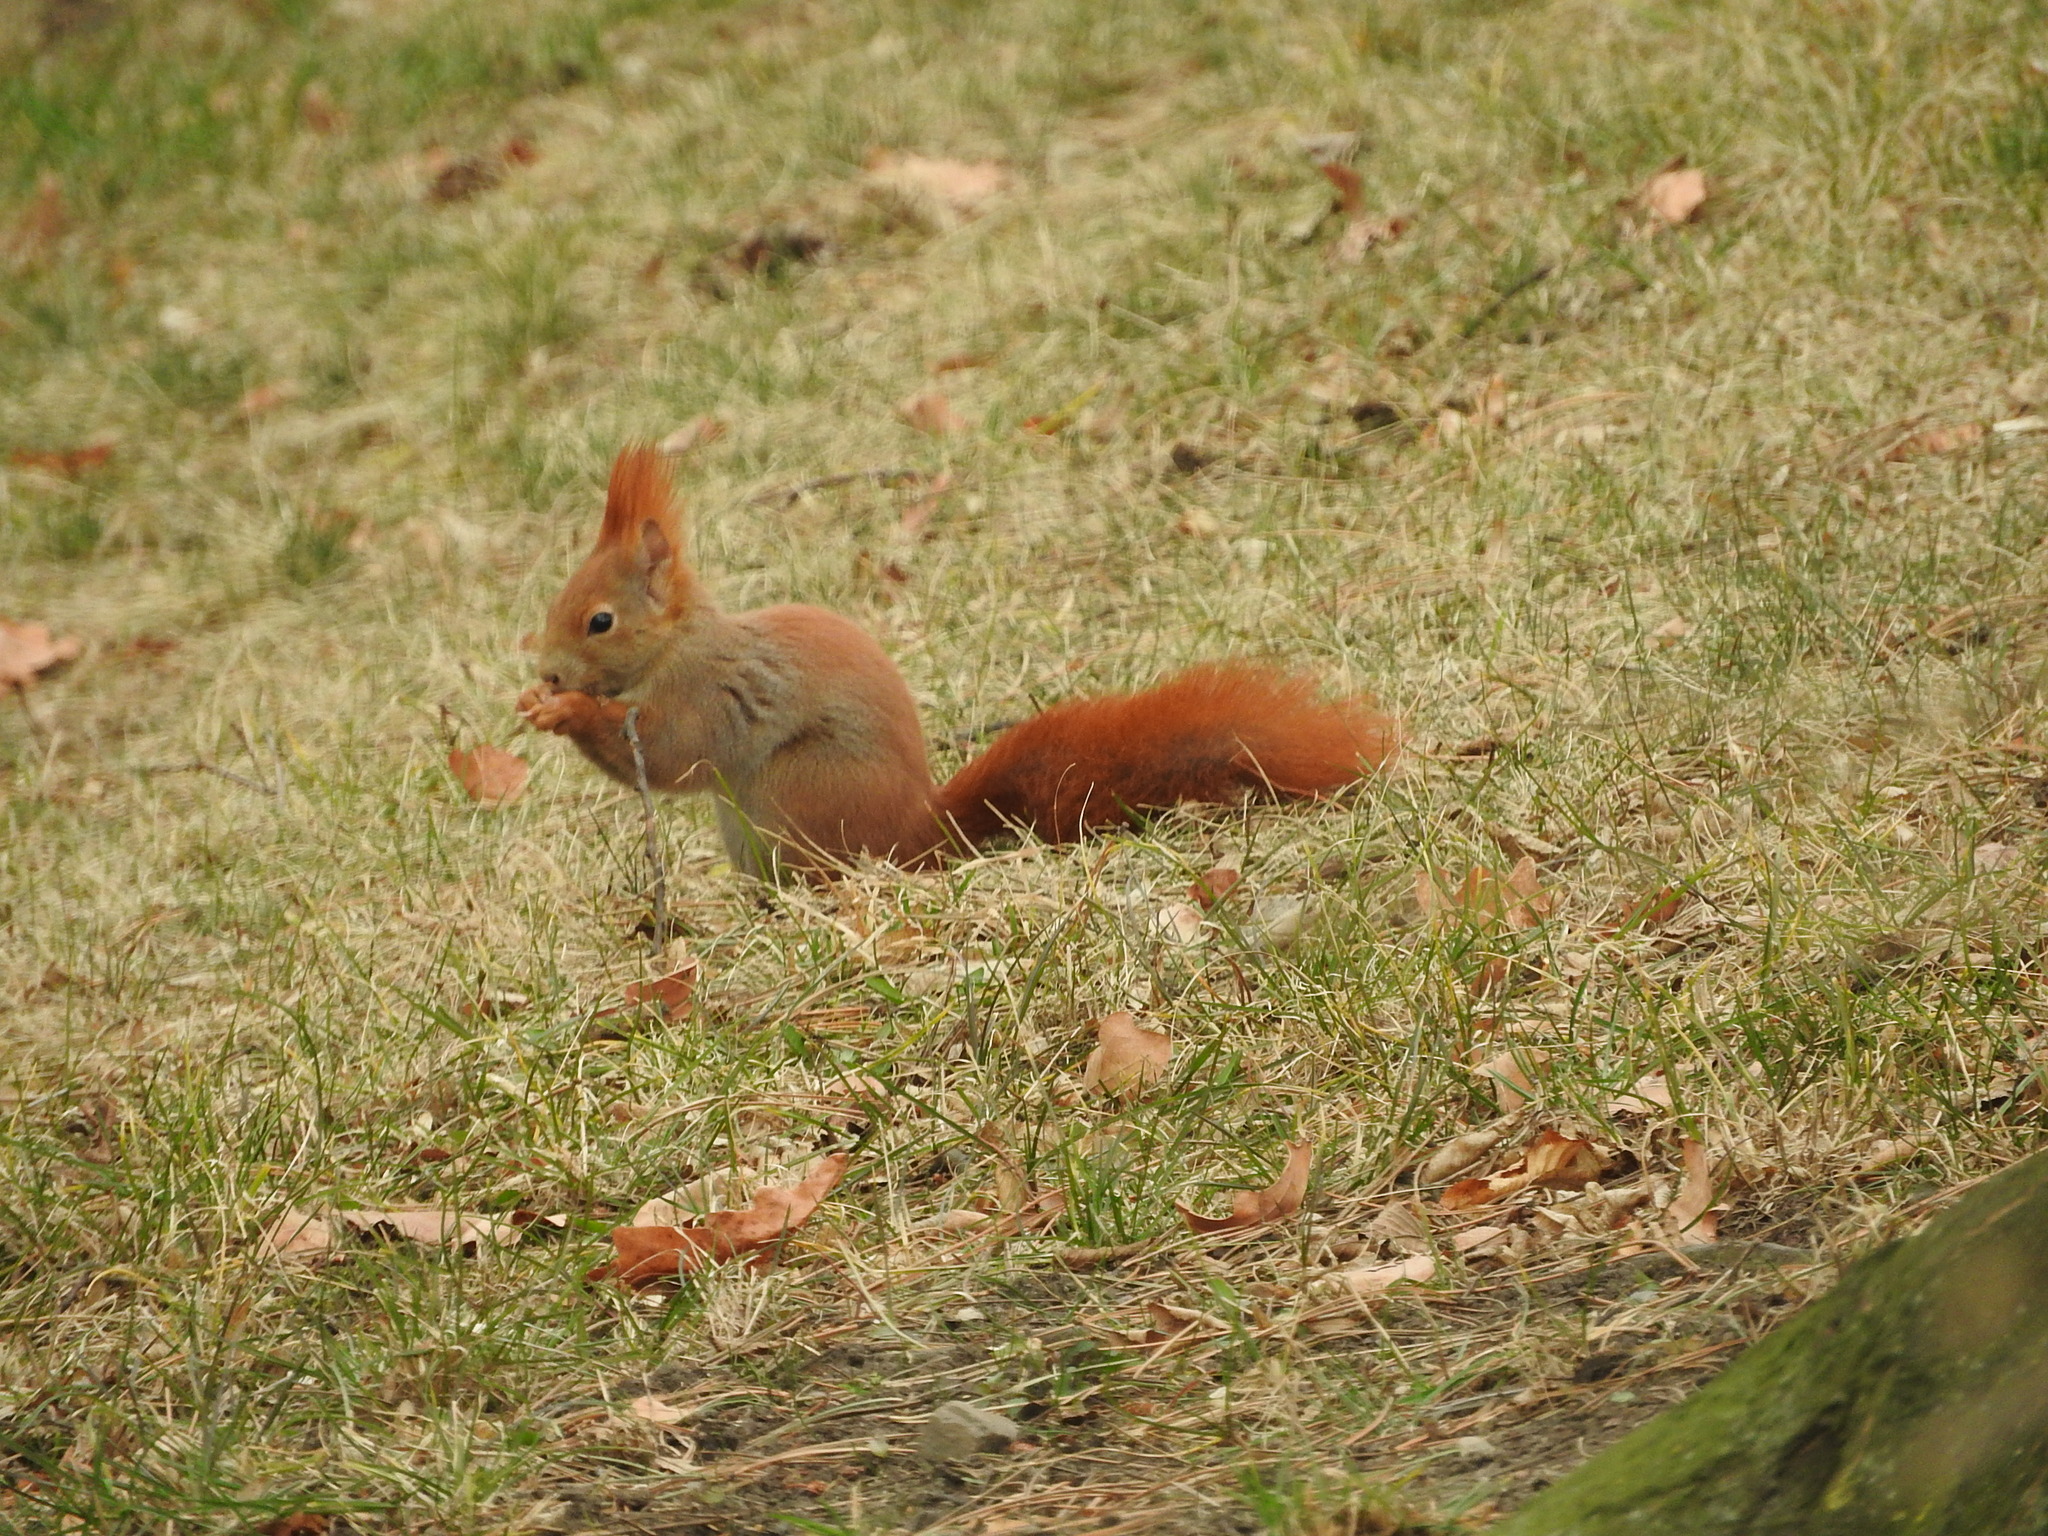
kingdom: Animalia
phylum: Chordata
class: Mammalia
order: Rodentia
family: Sciuridae
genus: Sciurus
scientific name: Sciurus vulgaris
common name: Eurasian red squirrel
